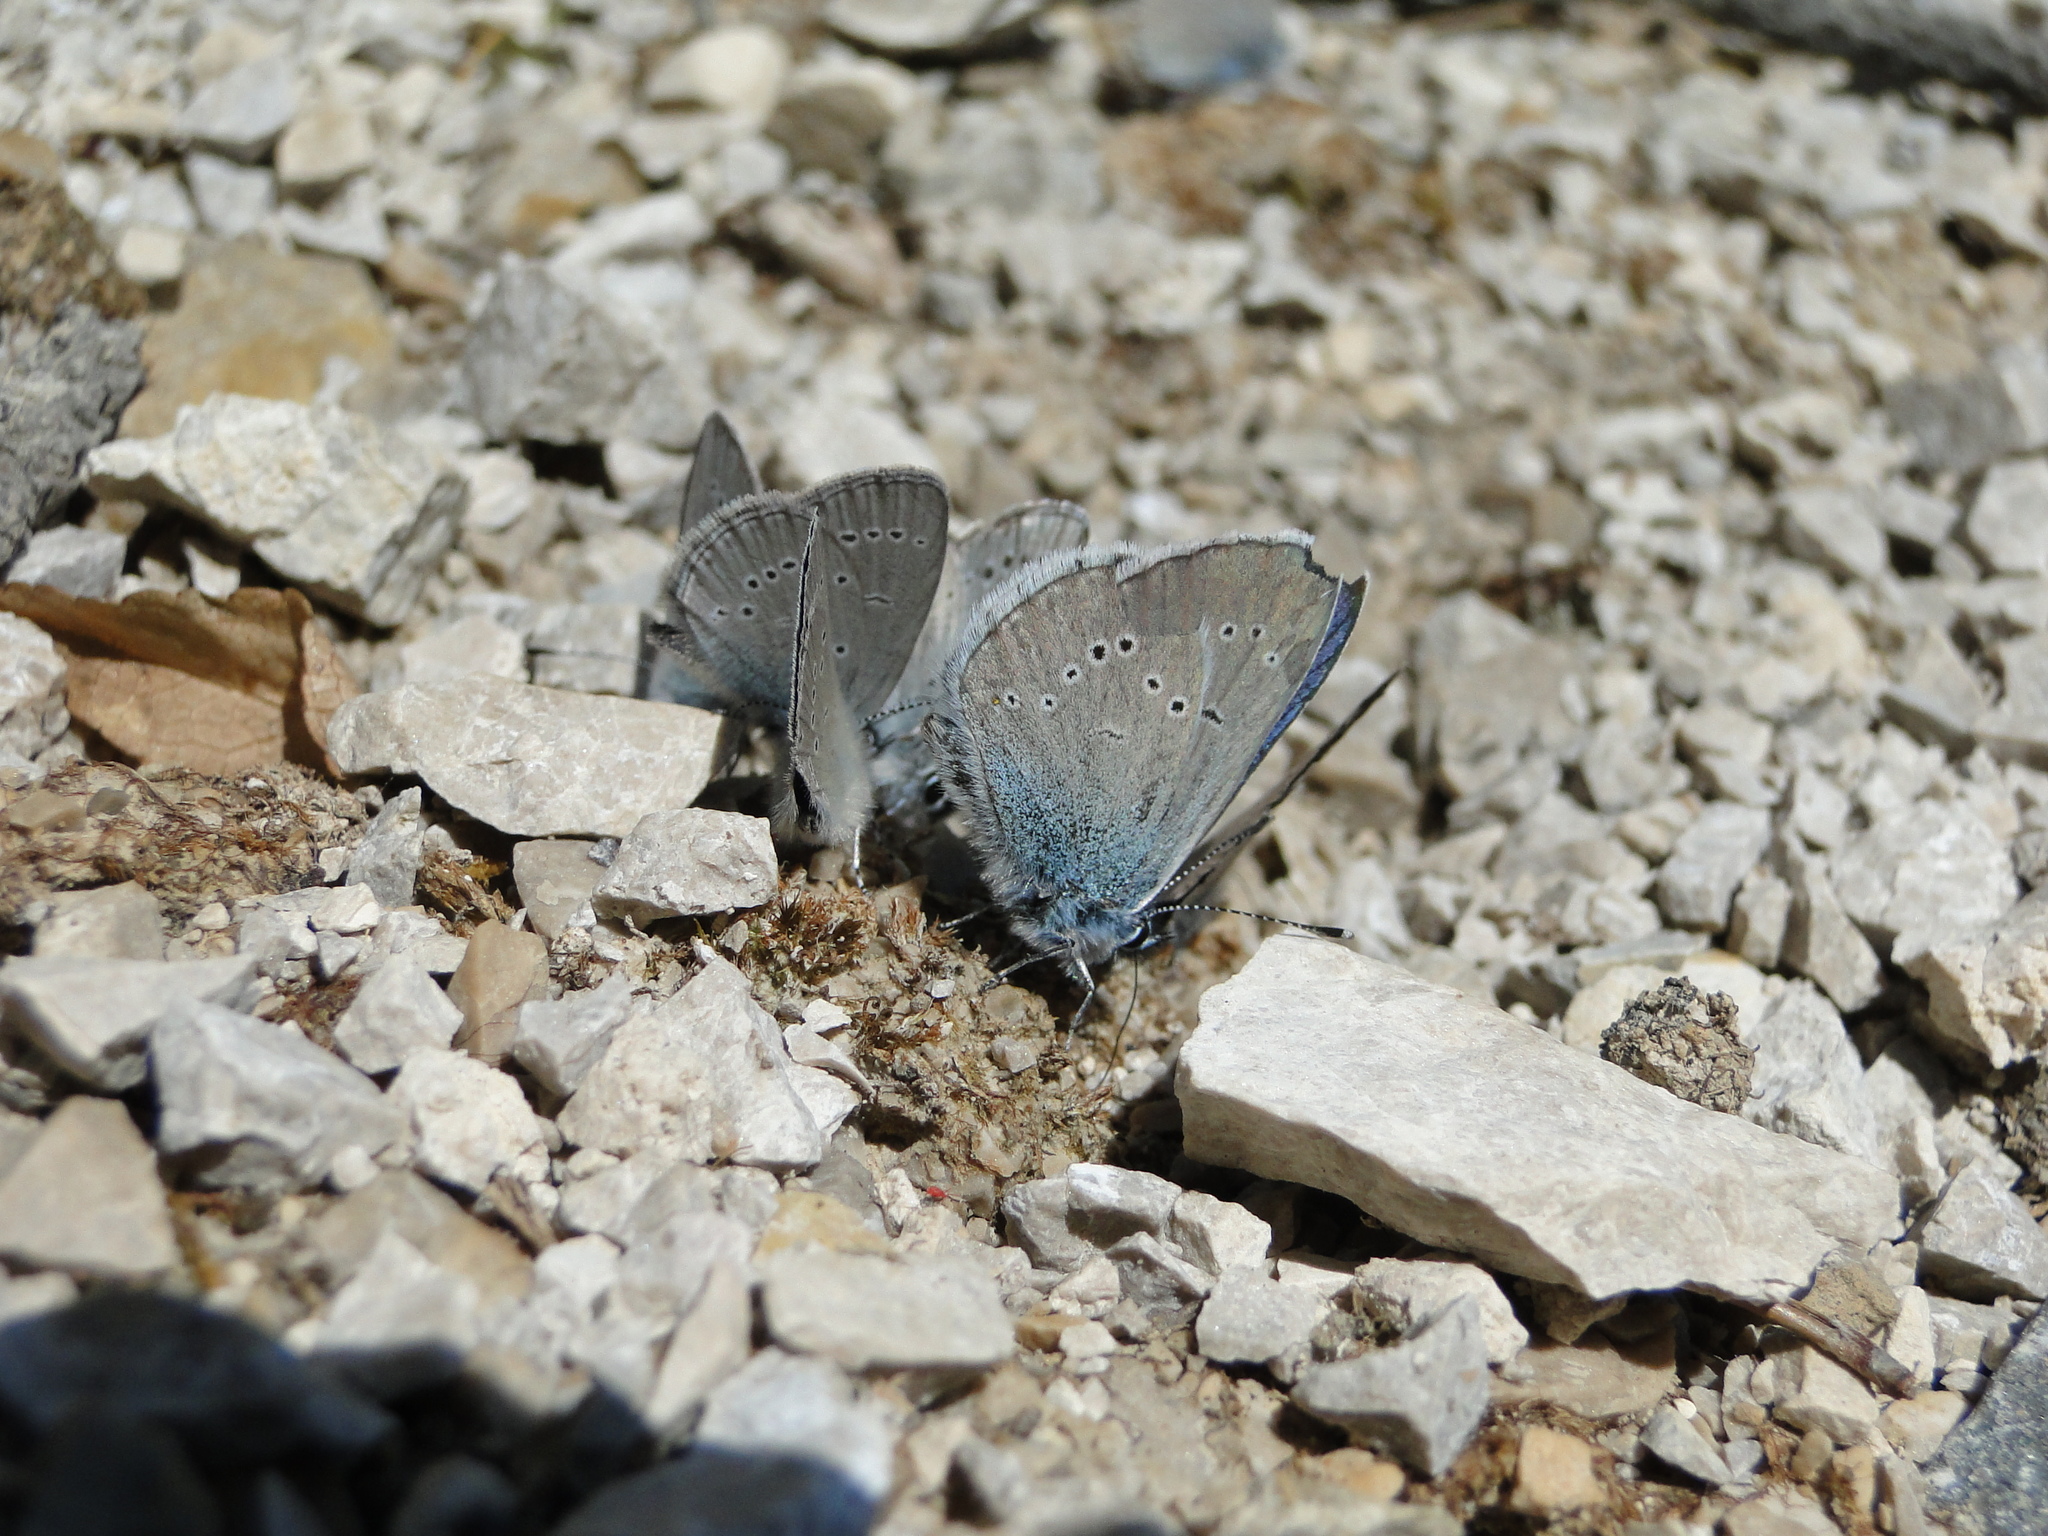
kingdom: Animalia
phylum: Arthropoda
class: Insecta
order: Lepidoptera
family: Lycaenidae
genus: Cyaniris
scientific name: Cyaniris semiargus
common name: Mazarine blue
